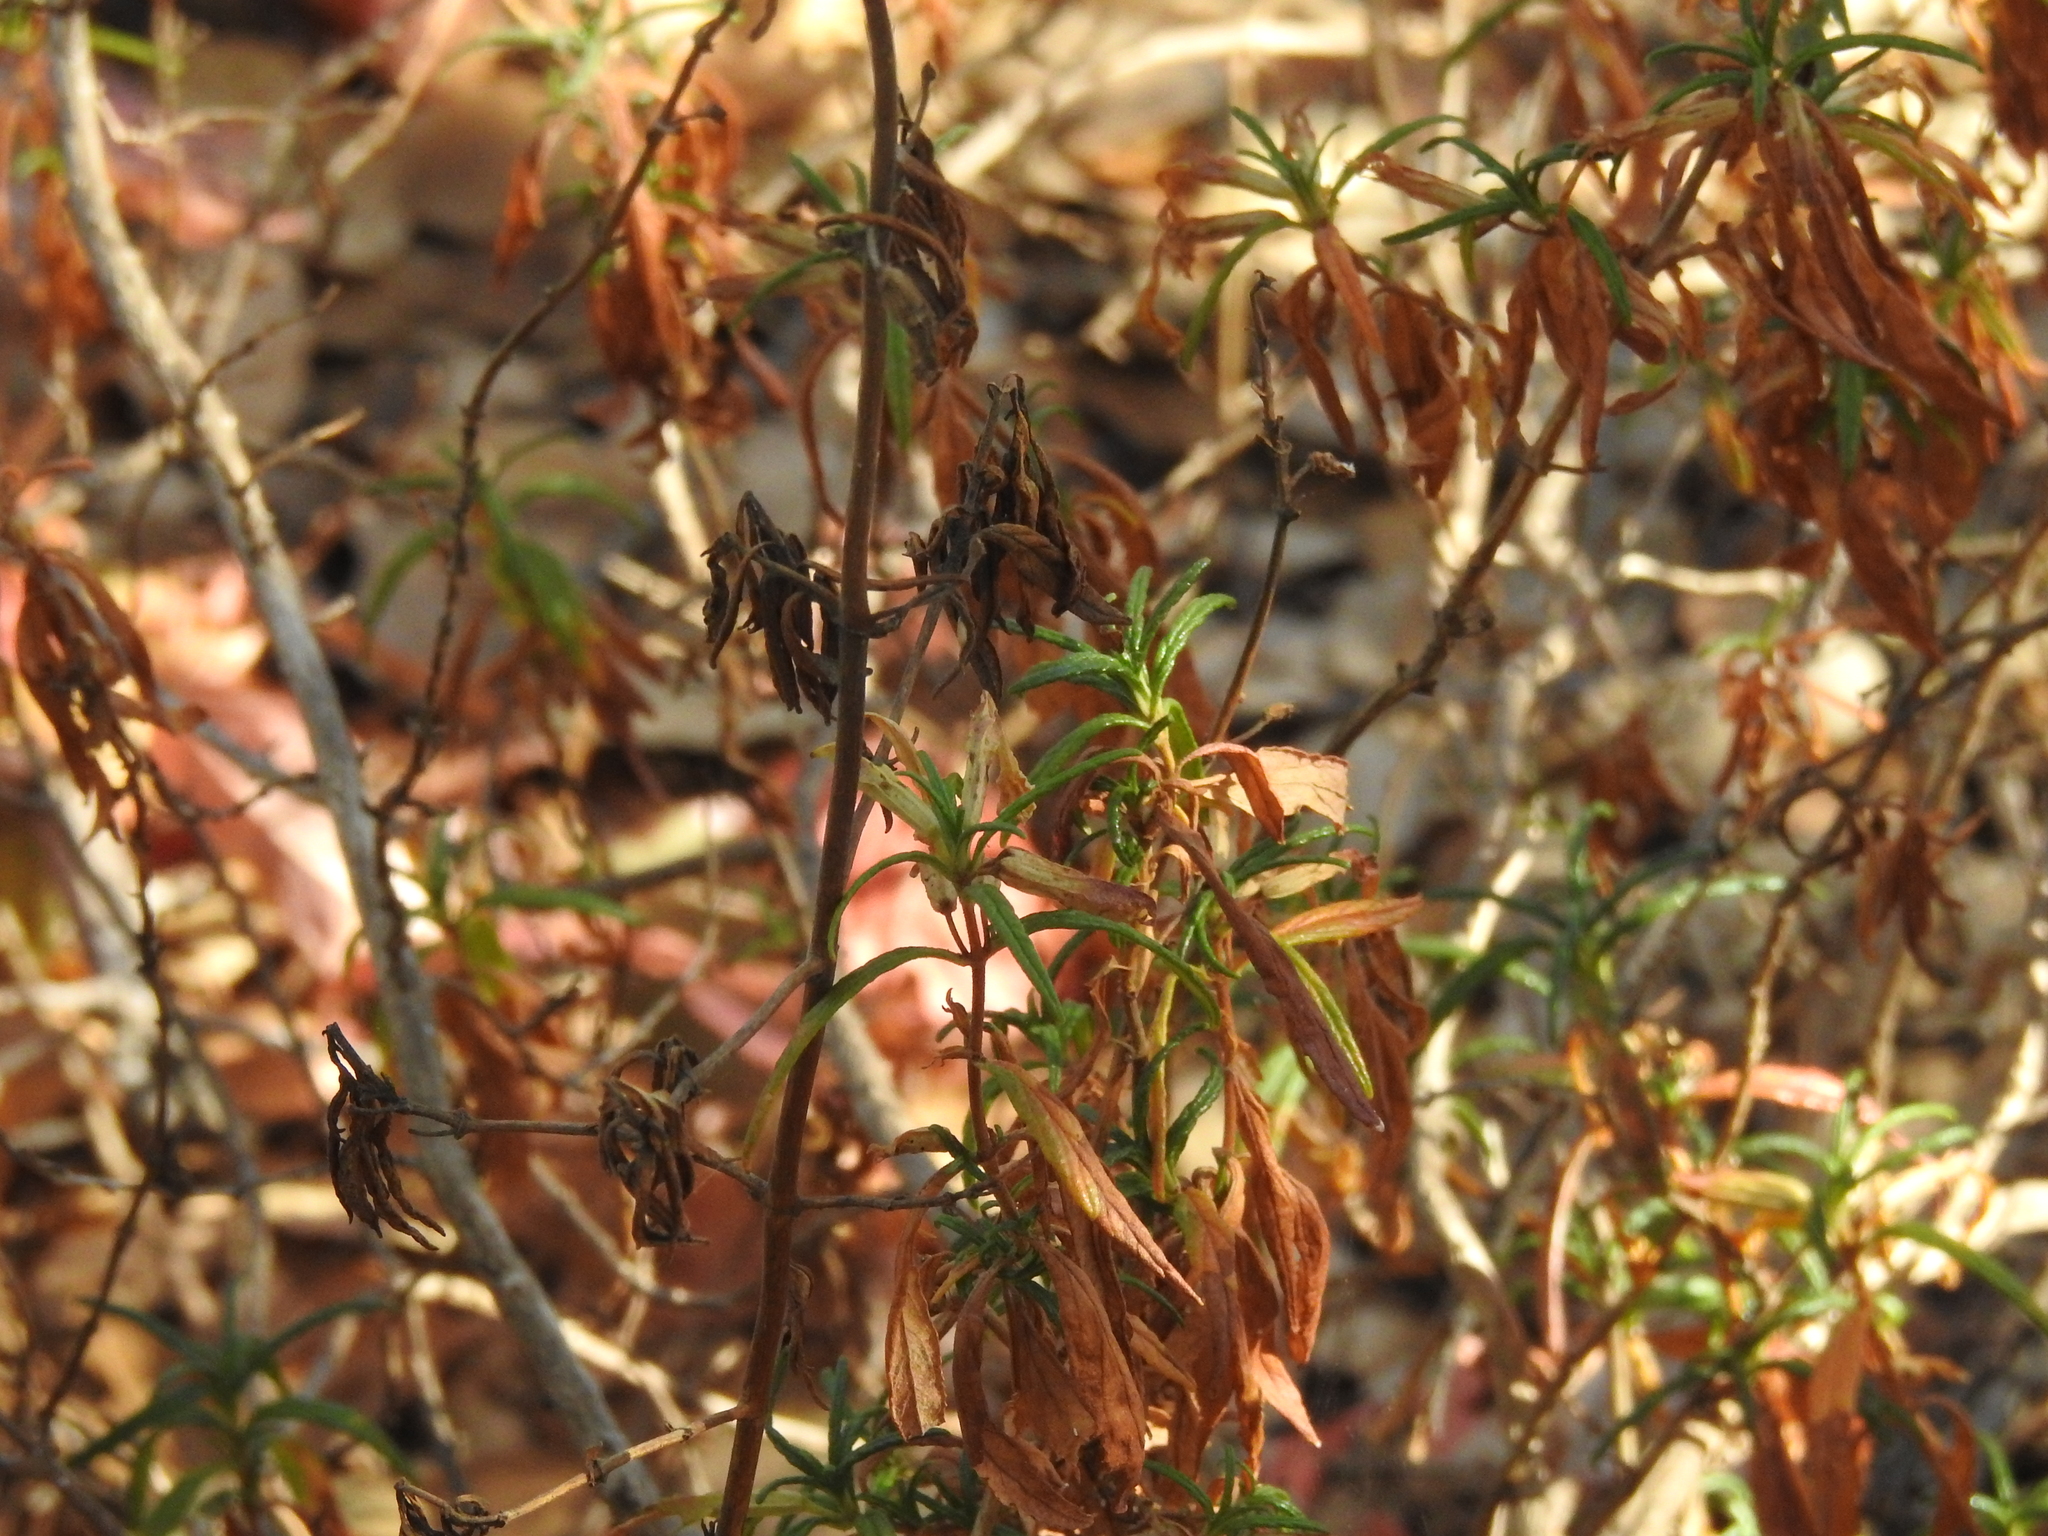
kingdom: Plantae
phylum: Tracheophyta
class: Magnoliopsida
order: Lamiales
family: Phrymaceae
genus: Diplacus
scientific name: Diplacus aurantiacus
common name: Bush monkey-flower
